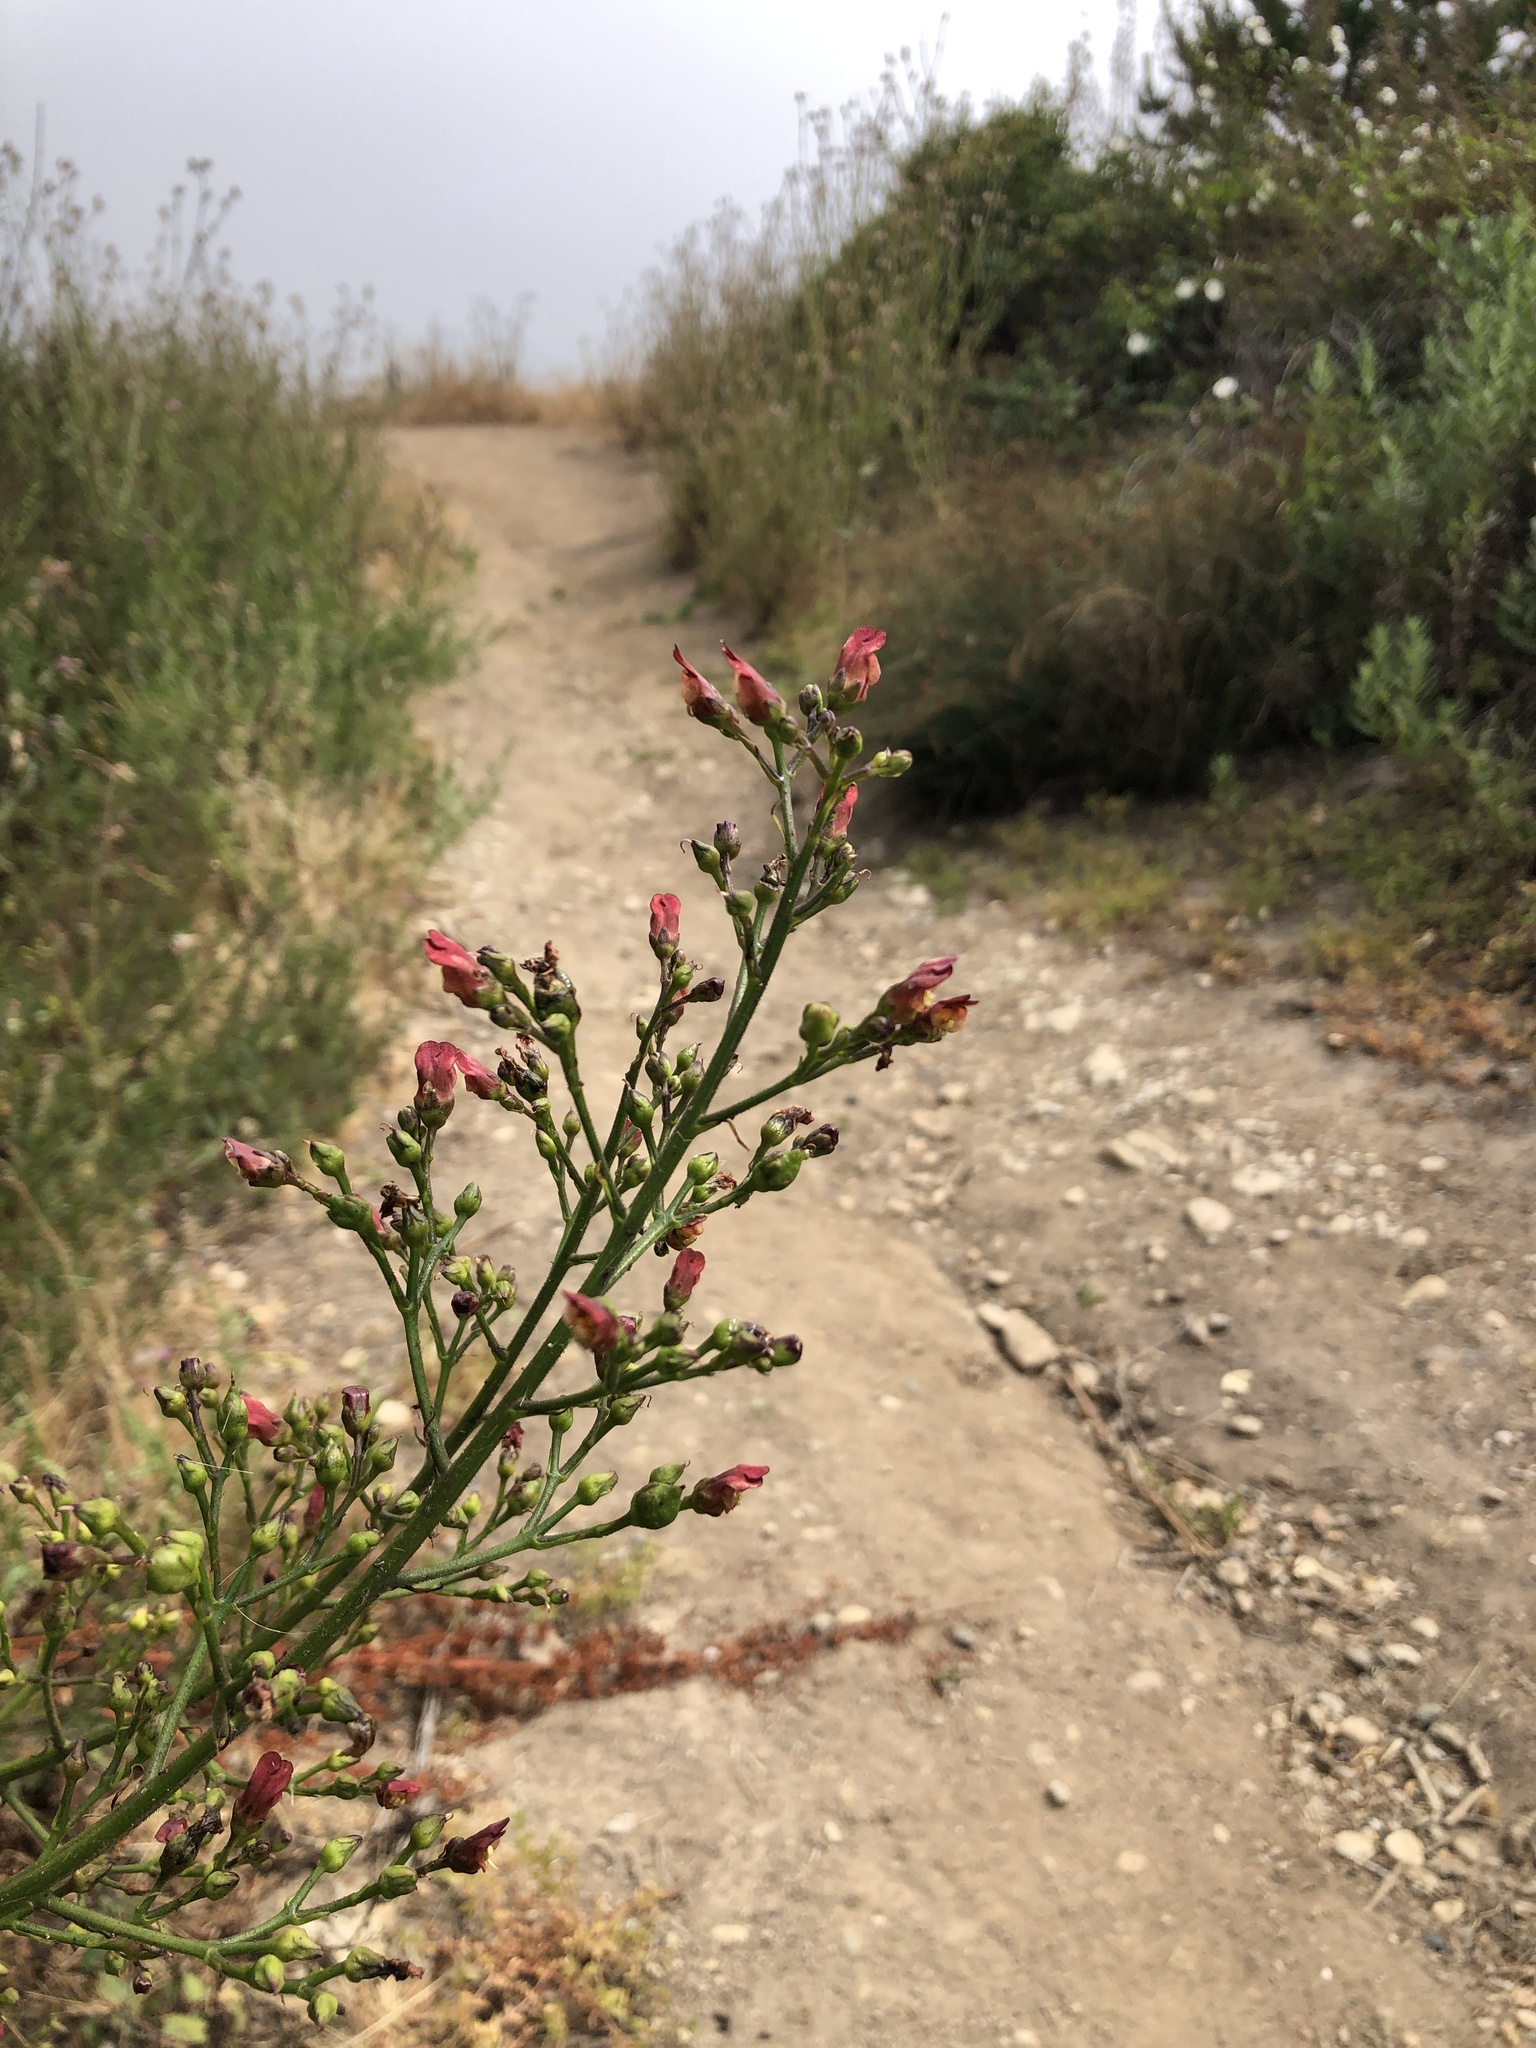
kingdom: Plantae
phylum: Tracheophyta
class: Magnoliopsida
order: Lamiales
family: Scrophulariaceae
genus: Scrophularia
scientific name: Scrophularia californica
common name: California figwort
